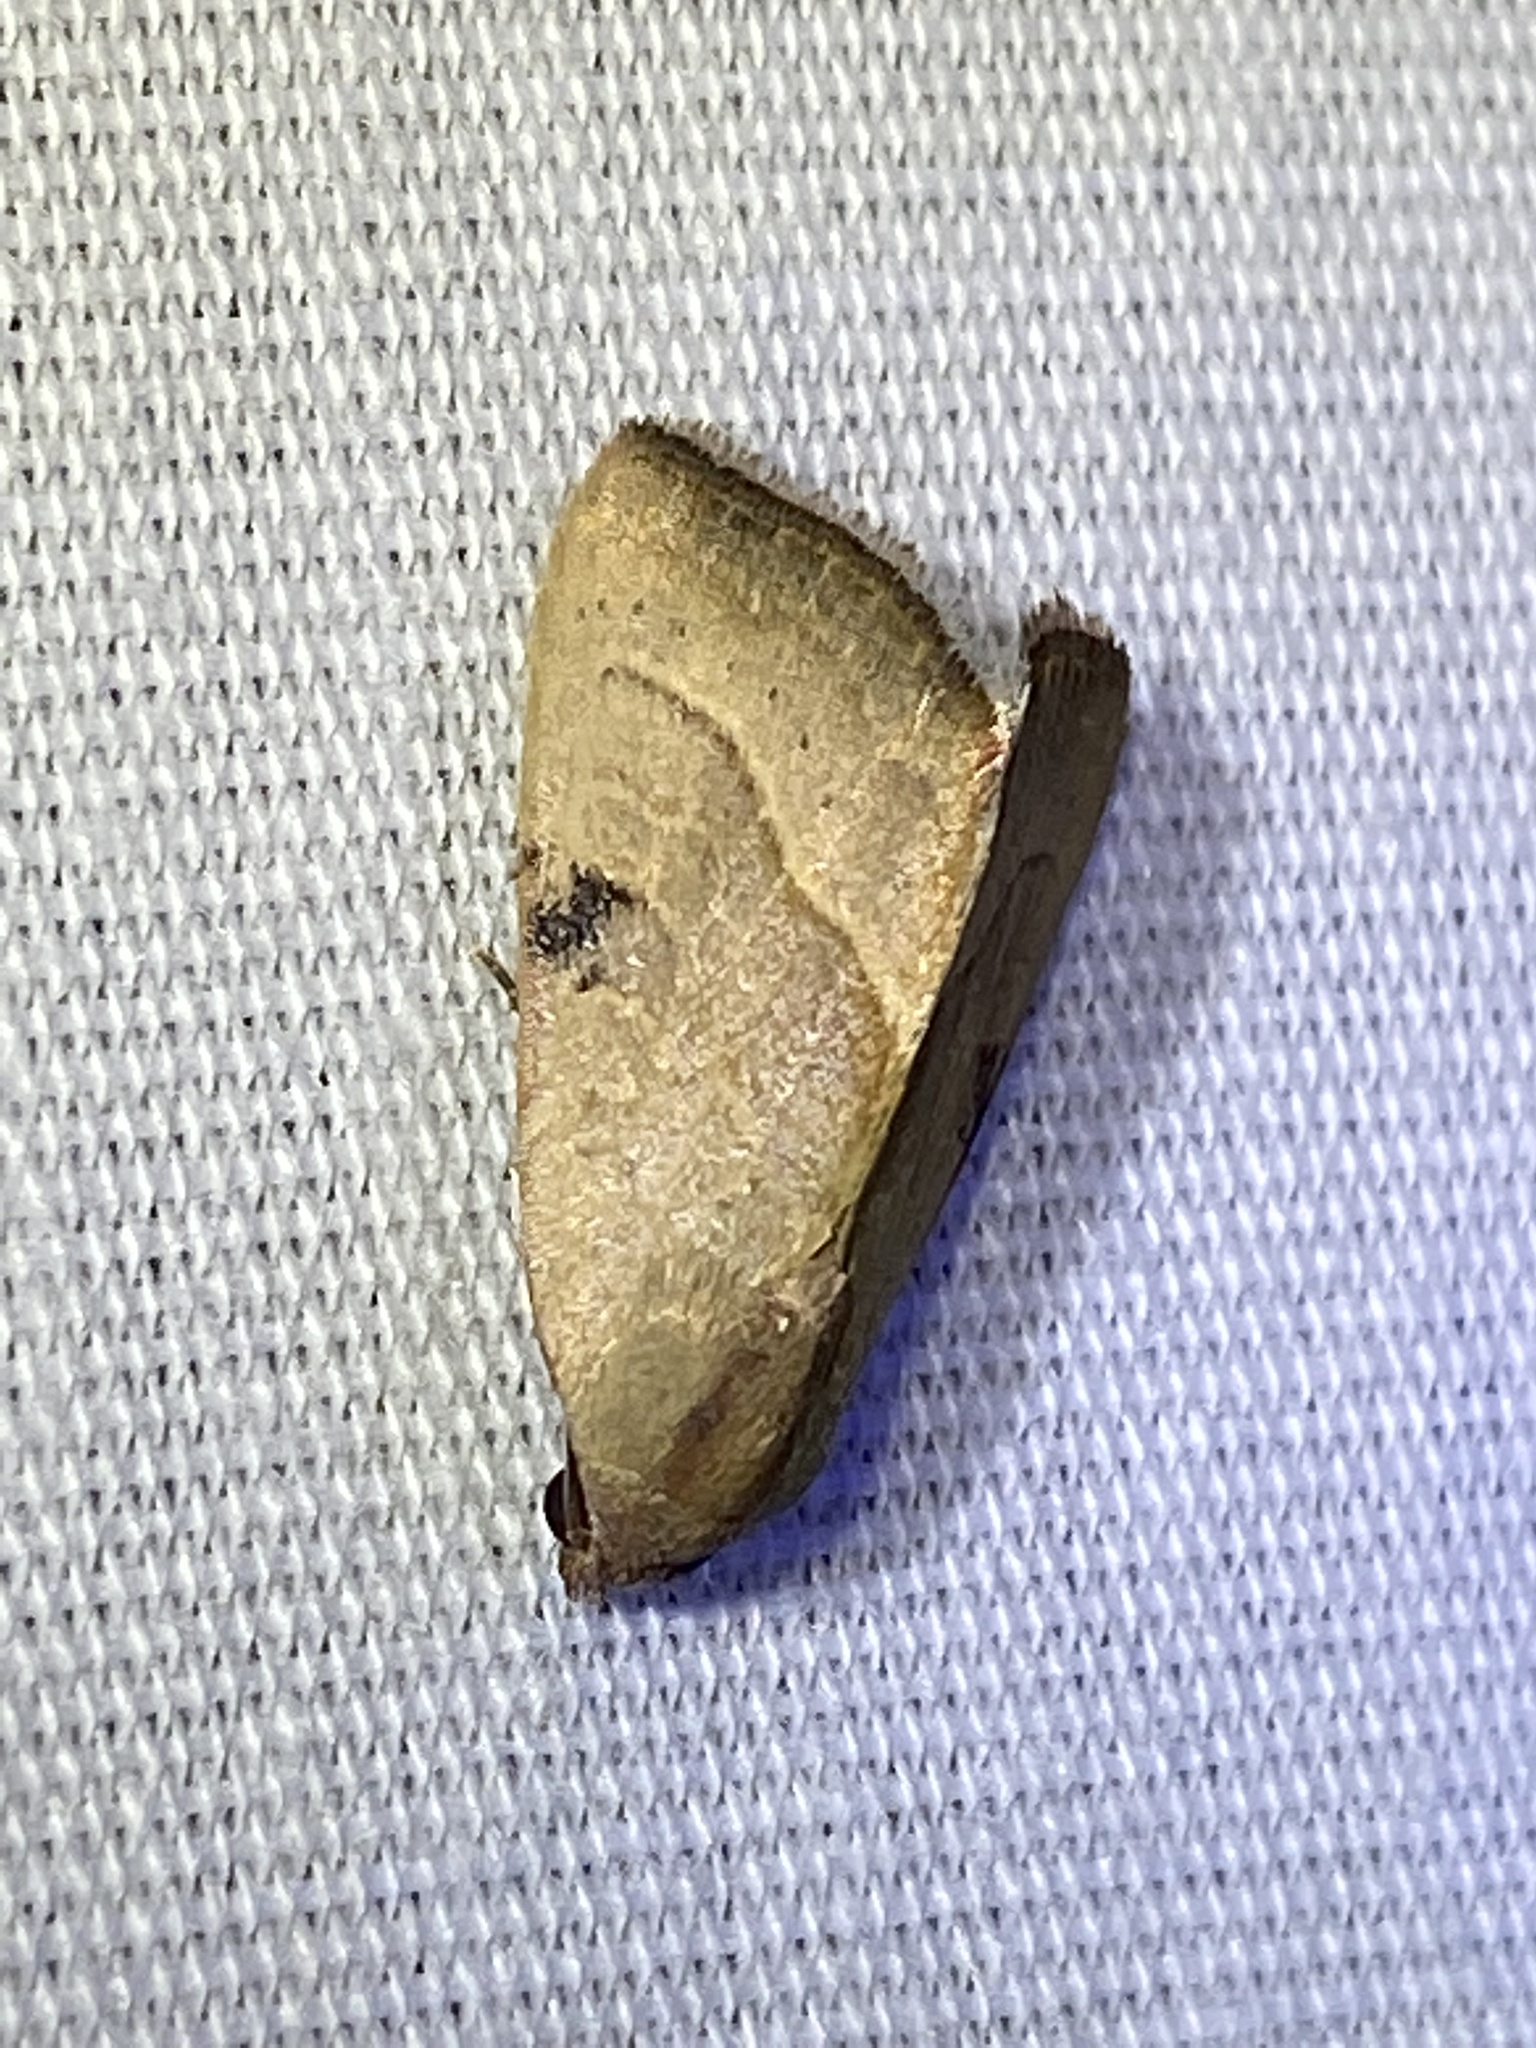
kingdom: Animalia
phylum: Arthropoda
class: Insecta
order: Lepidoptera
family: Noctuidae
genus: Galgula
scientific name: Galgula partita
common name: Wedgeling
